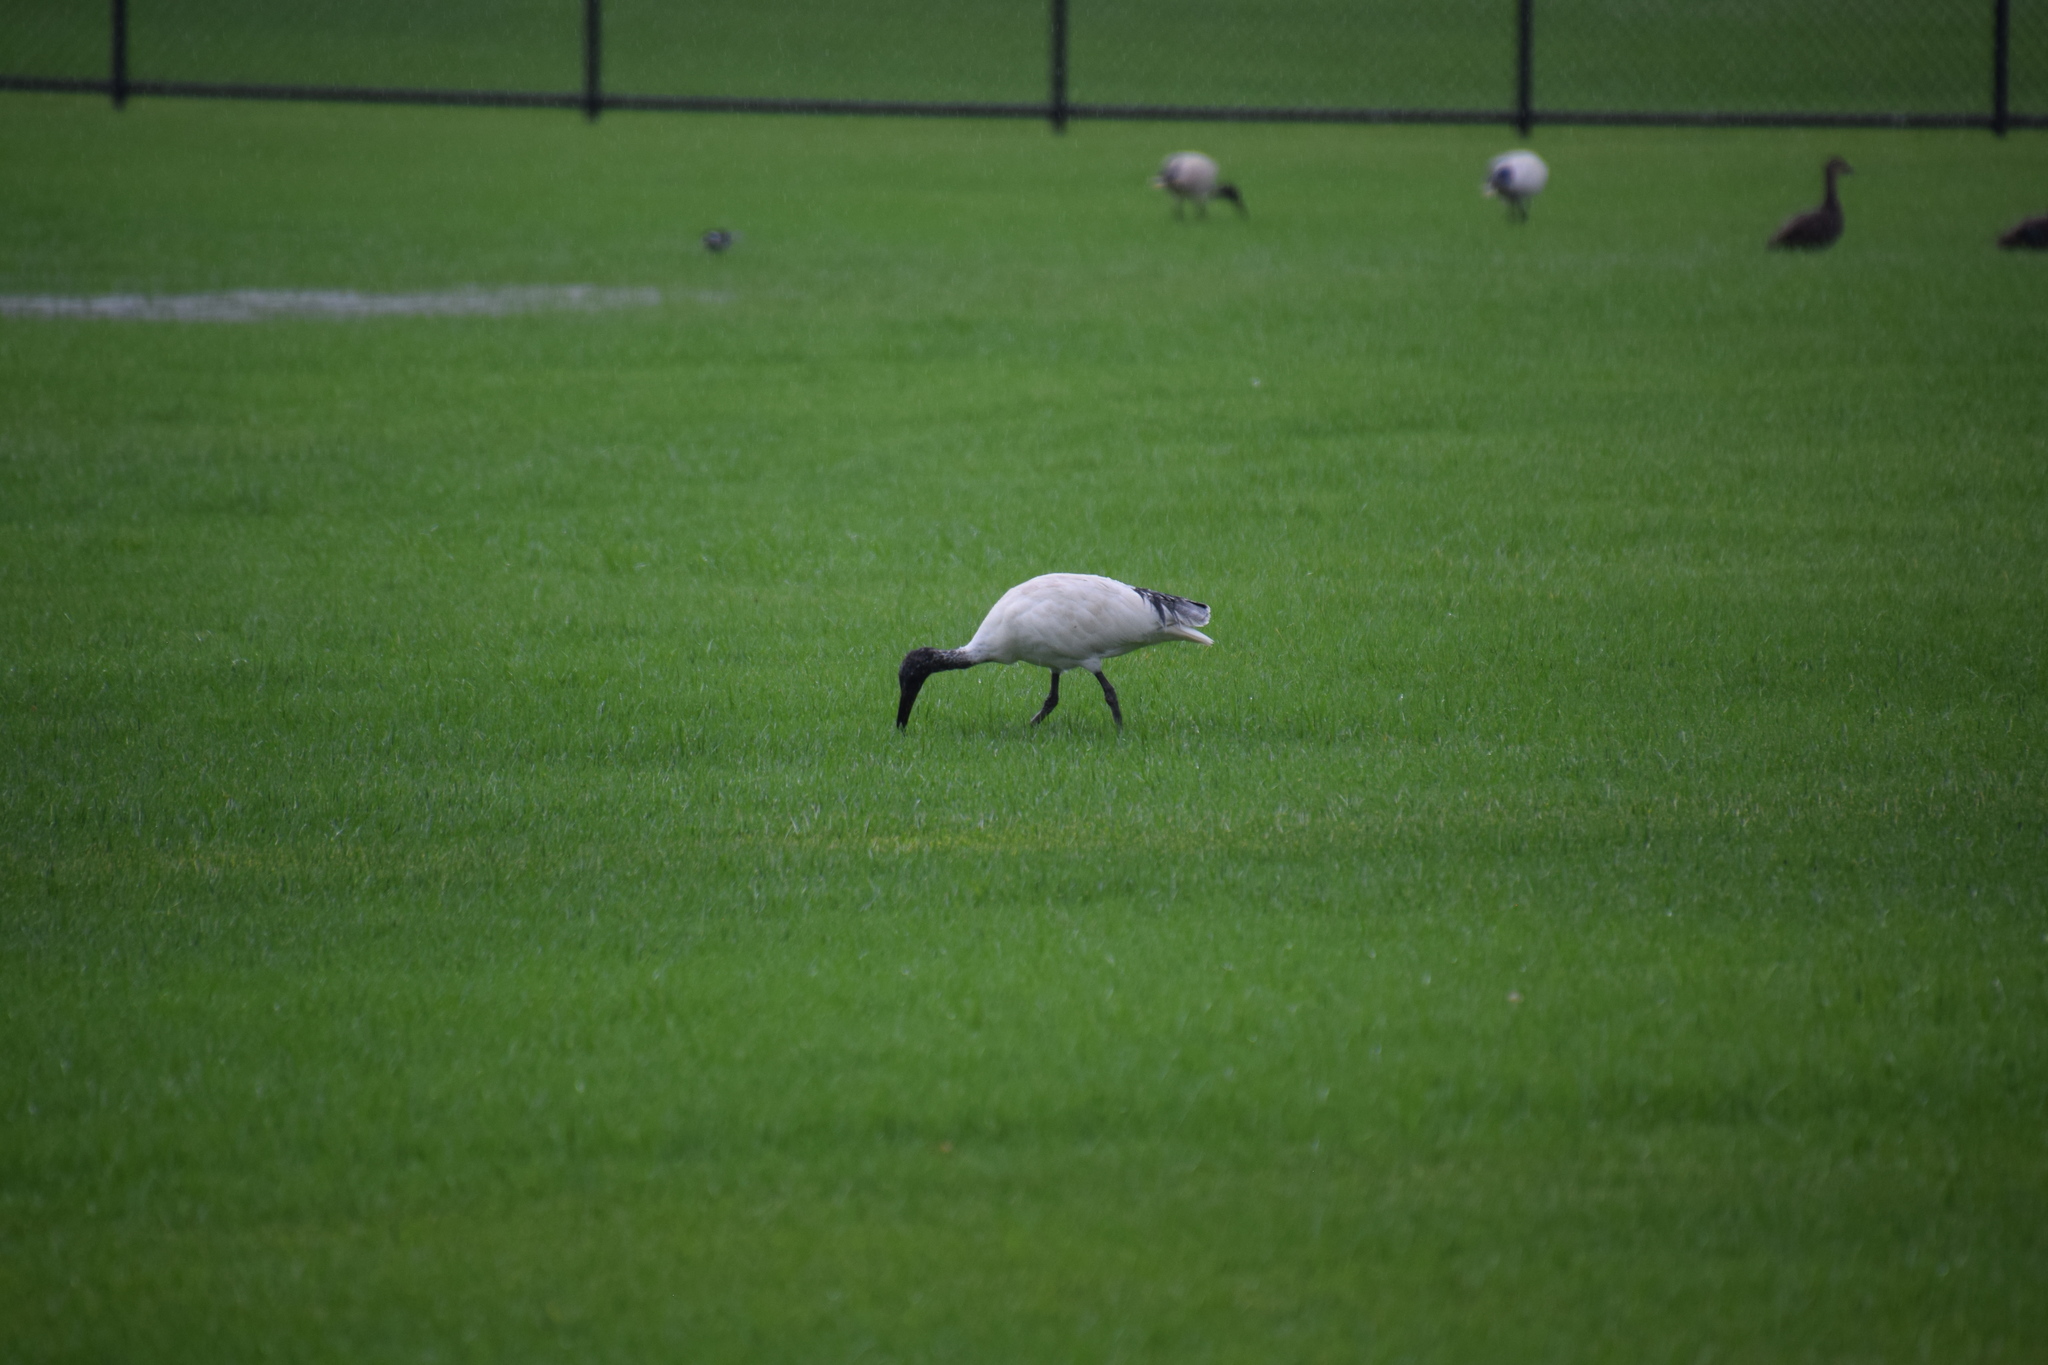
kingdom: Animalia
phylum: Chordata
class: Aves
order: Pelecaniformes
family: Threskiornithidae
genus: Threskiornis
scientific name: Threskiornis molucca
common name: Australian white ibis
